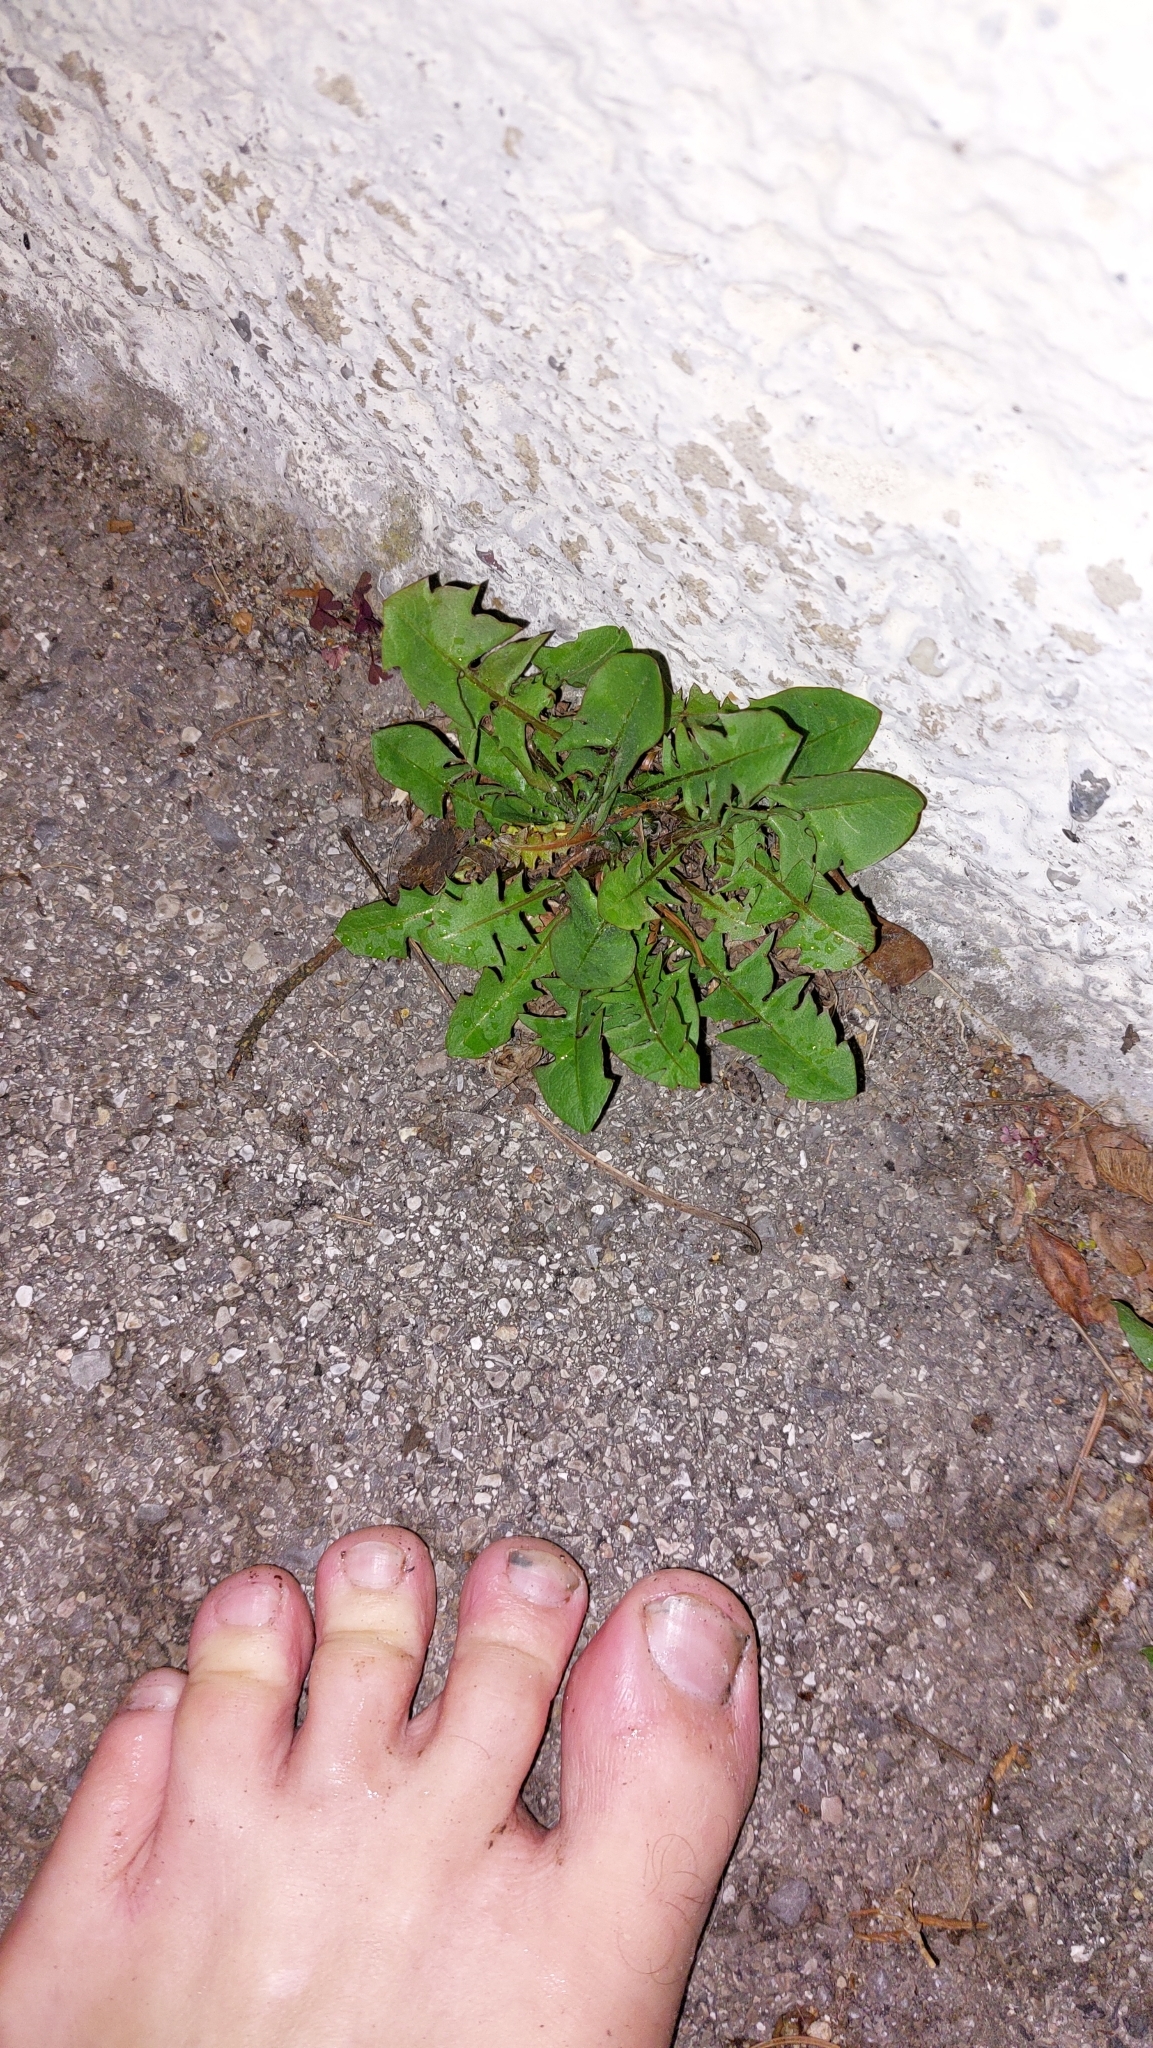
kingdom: Plantae
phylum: Tracheophyta
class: Magnoliopsida
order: Asterales
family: Asteraceae
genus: Taraxacum
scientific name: Taraxacum
